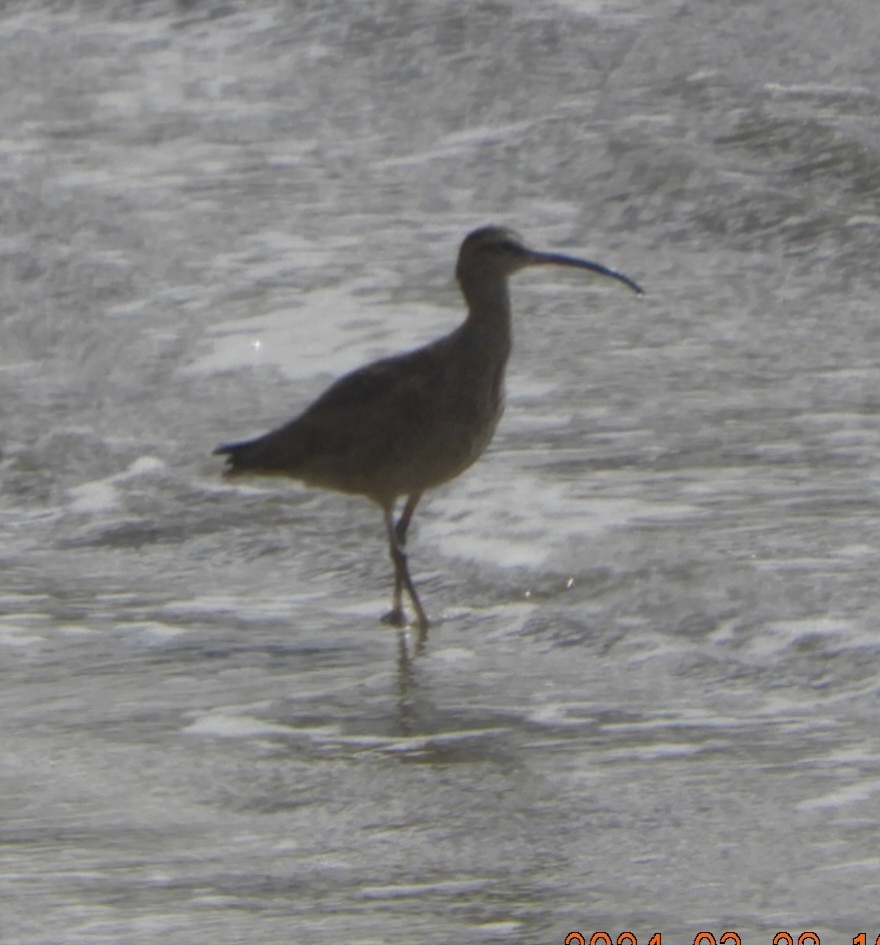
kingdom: Animalia
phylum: Chordata
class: Aves
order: Charadriiformes
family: Scolopacidae
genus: Numenius
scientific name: Numenius phaeopus
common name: Whimbrel
